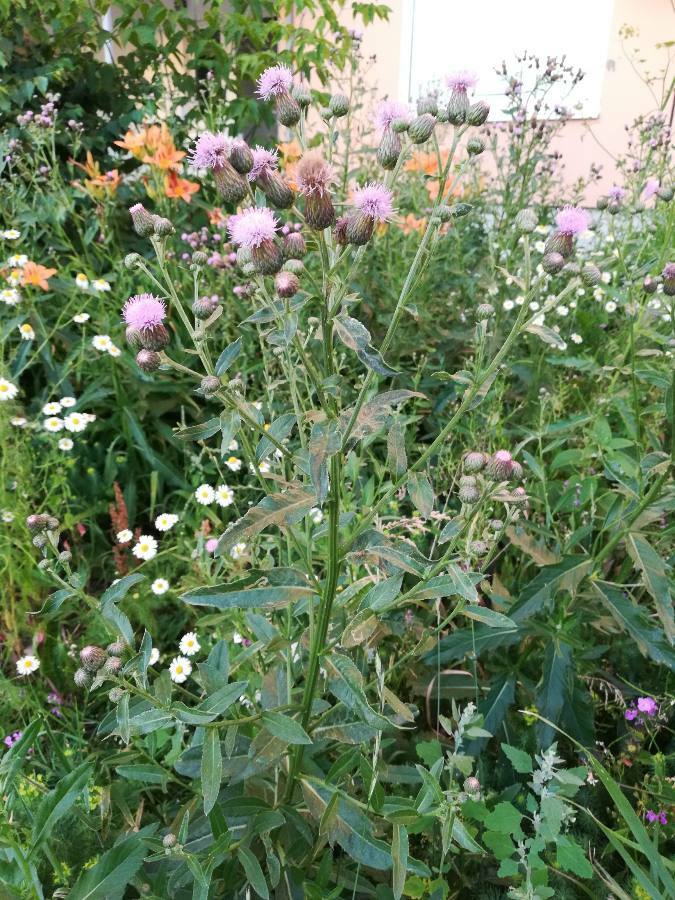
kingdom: Plantae
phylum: Tracheophyta
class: Magnoliopsida
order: Asterales
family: Asteraceae
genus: Cirsium
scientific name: Cirsium arvense
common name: Creeping thistle
